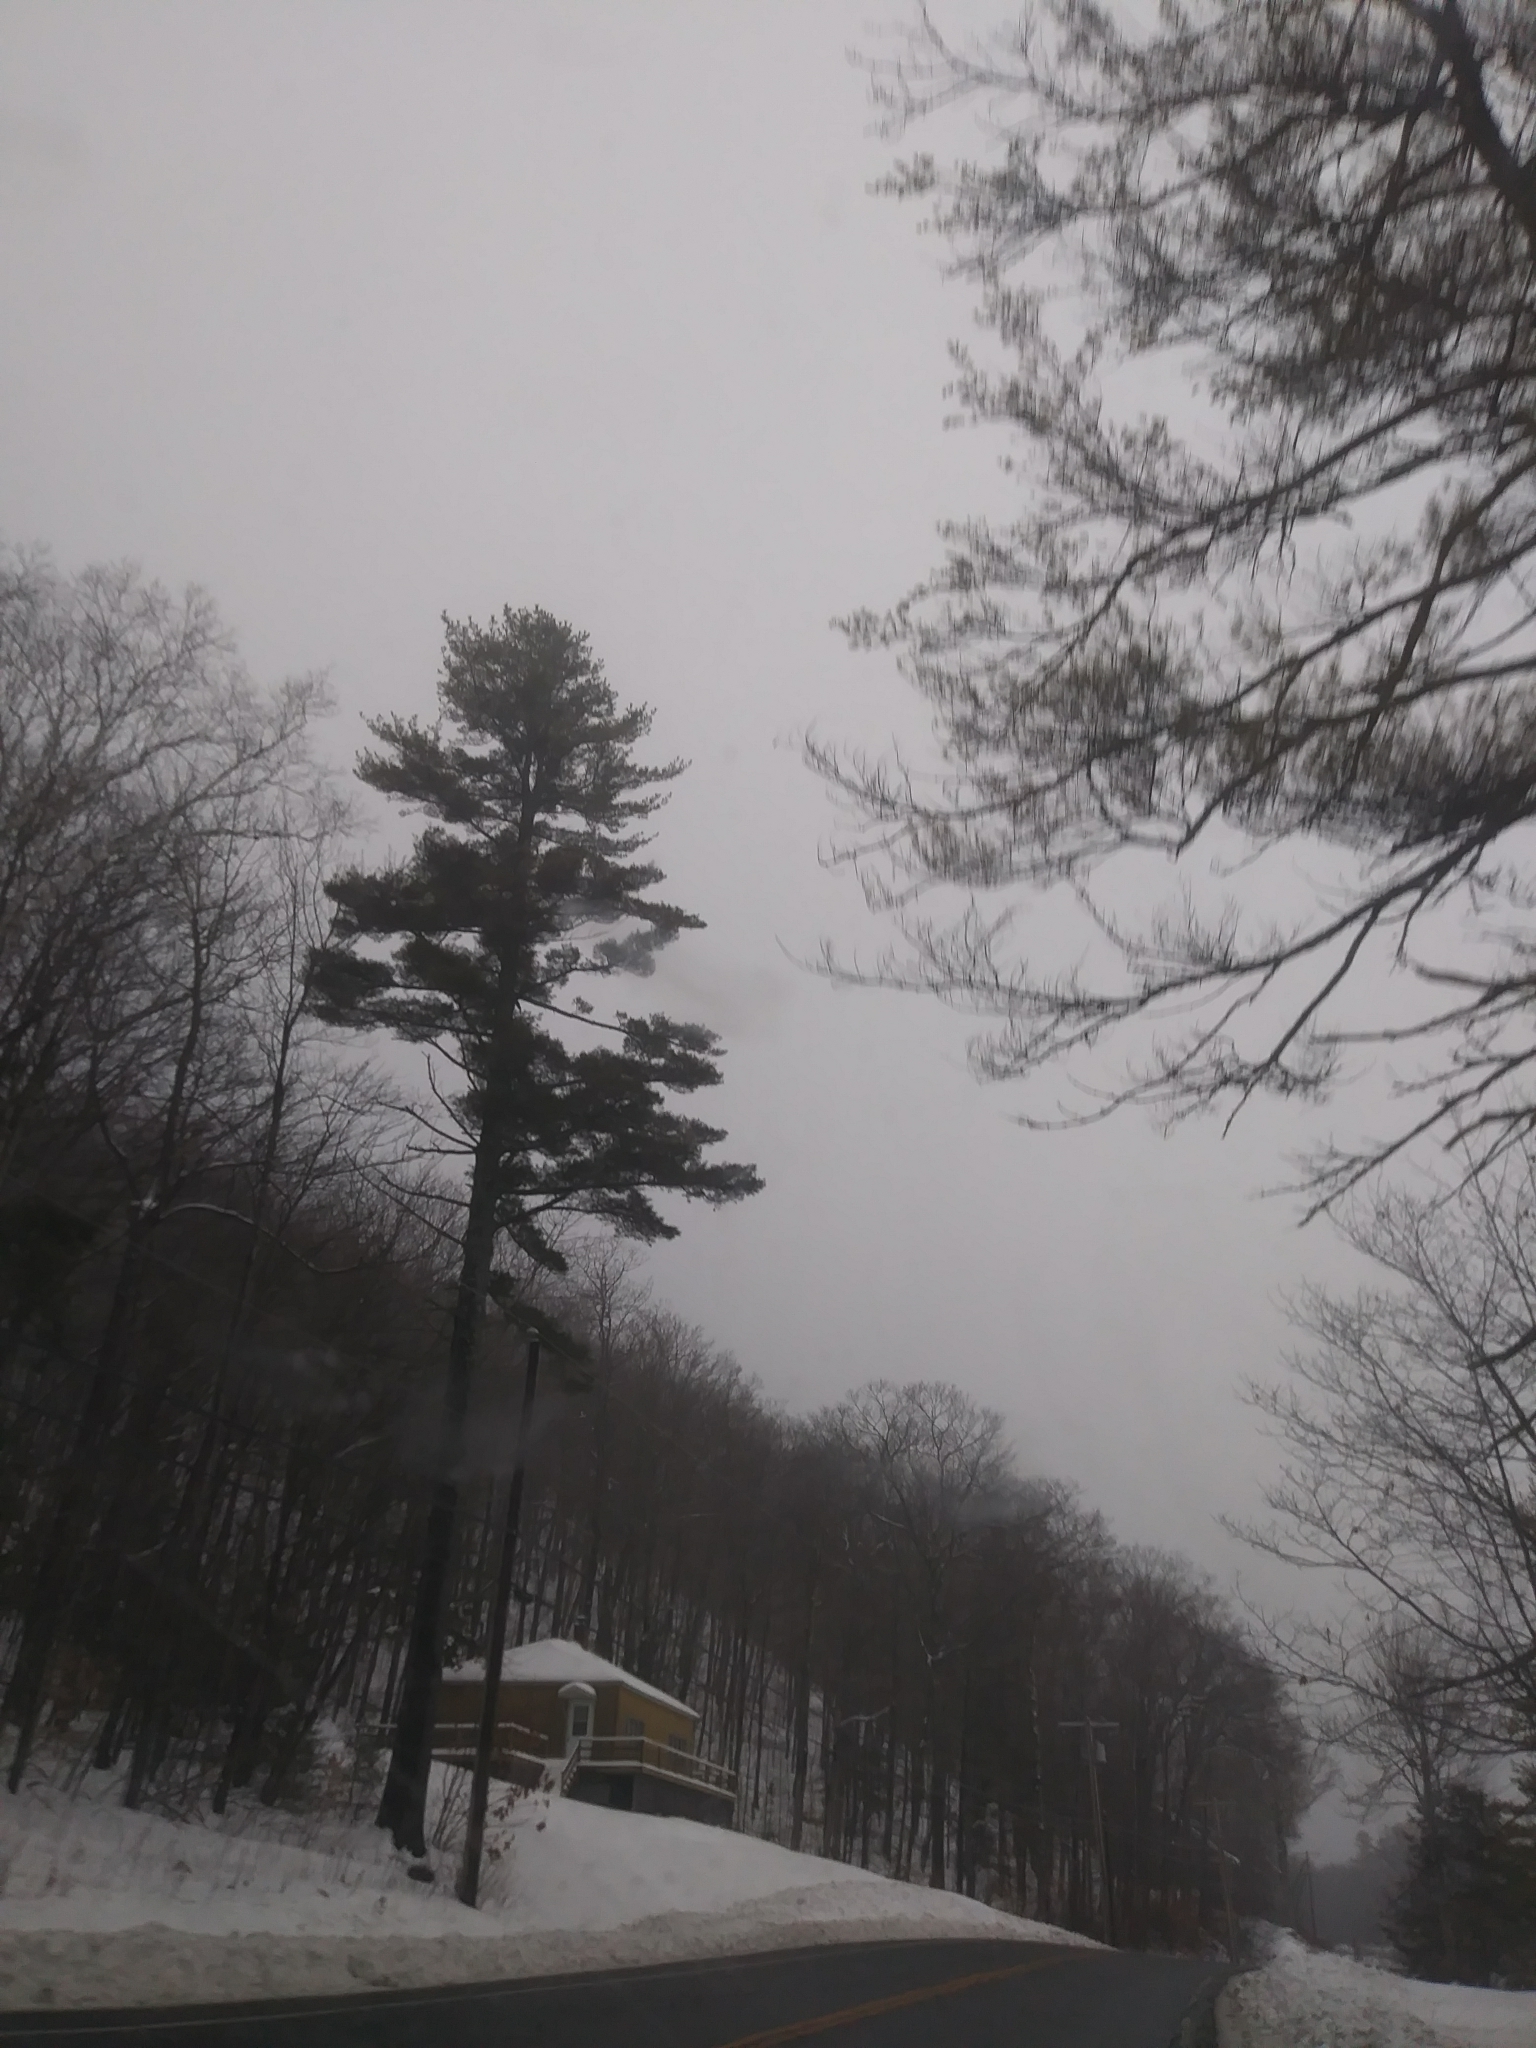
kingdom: Plantae
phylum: Tracheophyta
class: Pinopsida
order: Pinales
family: Pinaceae
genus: Pinus
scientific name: Pinus strobus
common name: Weymouth pine
